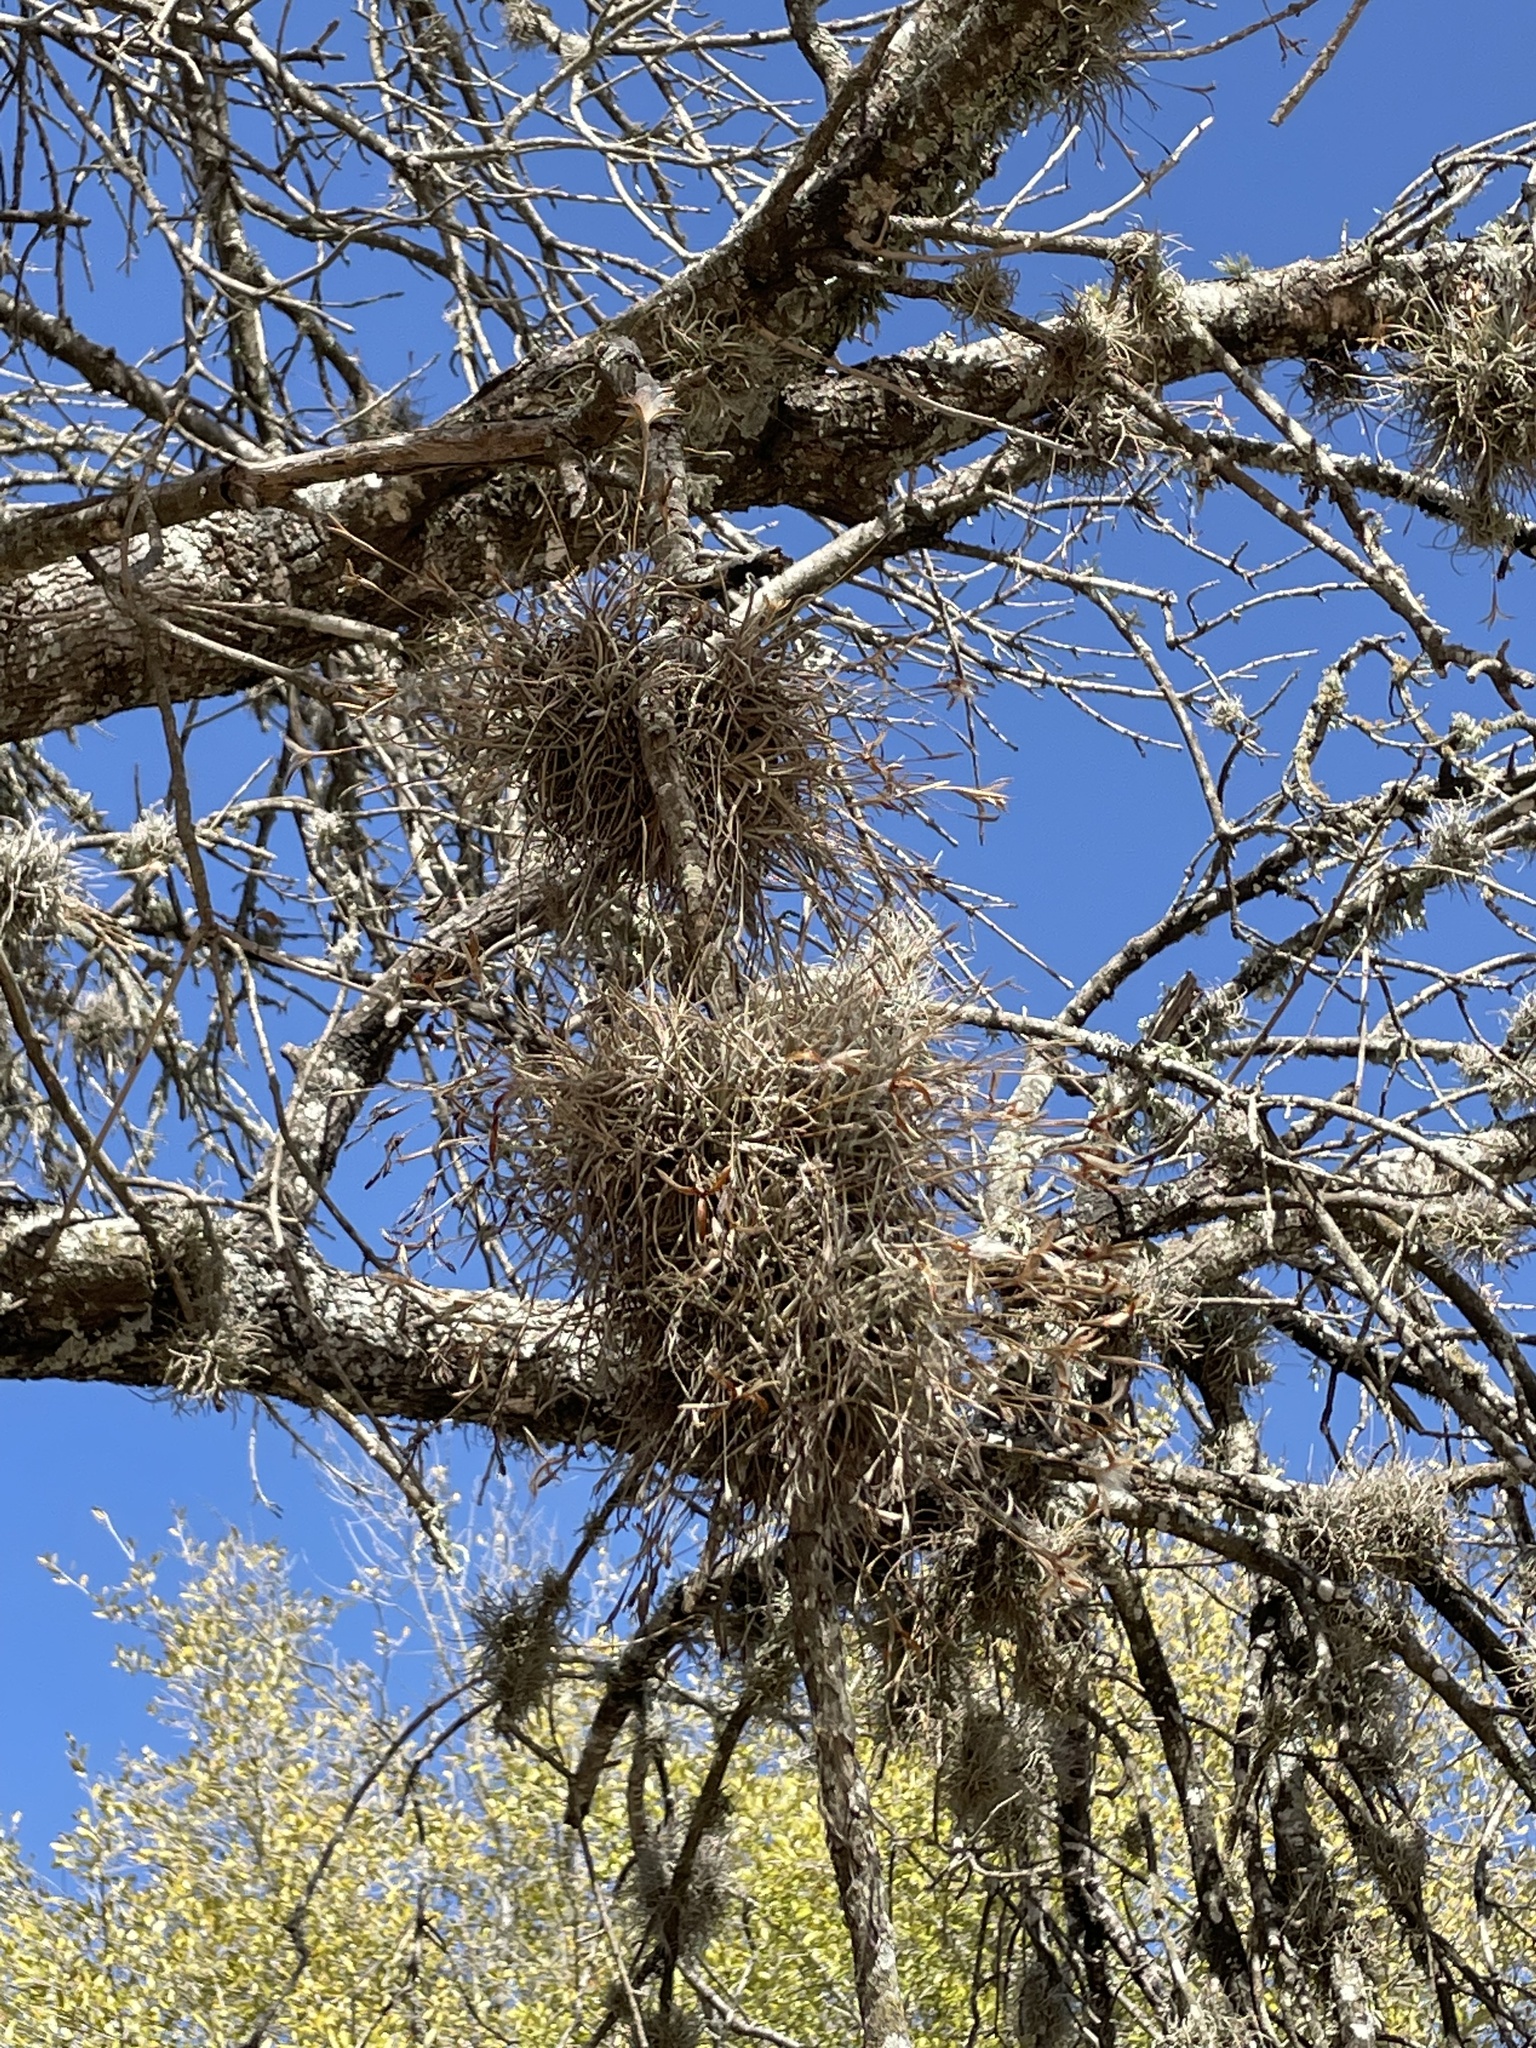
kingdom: Plantae
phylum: Tracheophyta
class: Liliopsida
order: Poales
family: Bromeliaceae
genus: Tillandsia
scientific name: Tillandsia recurvata
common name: Small ballmoss
